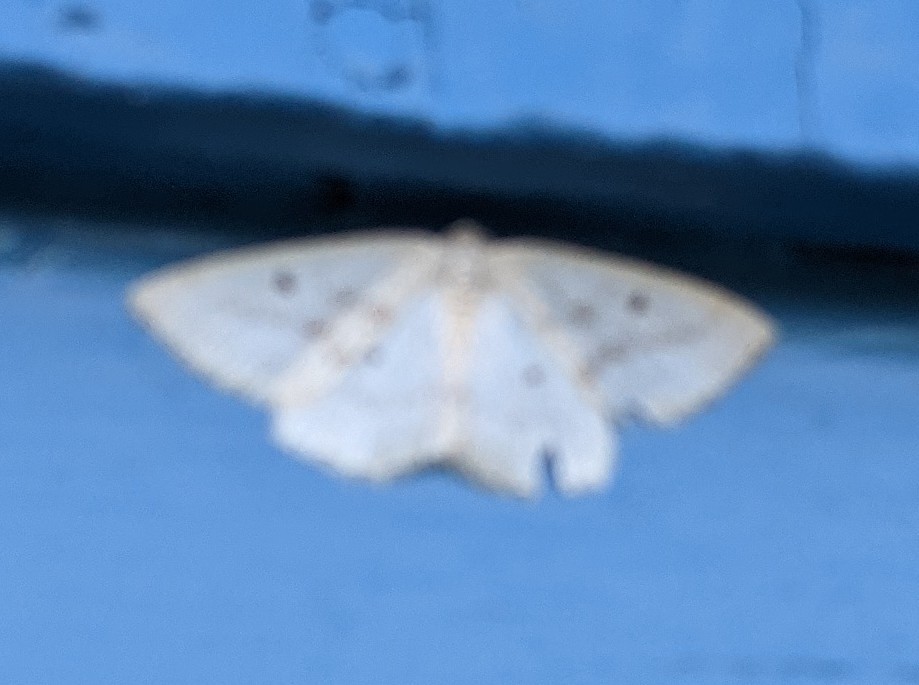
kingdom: Animalia
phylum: Arthropoda
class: Insecta
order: Lepidoptera
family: Geometridae
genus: Lomographa
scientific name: Lomographa glomeraria
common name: Gray spring moth
